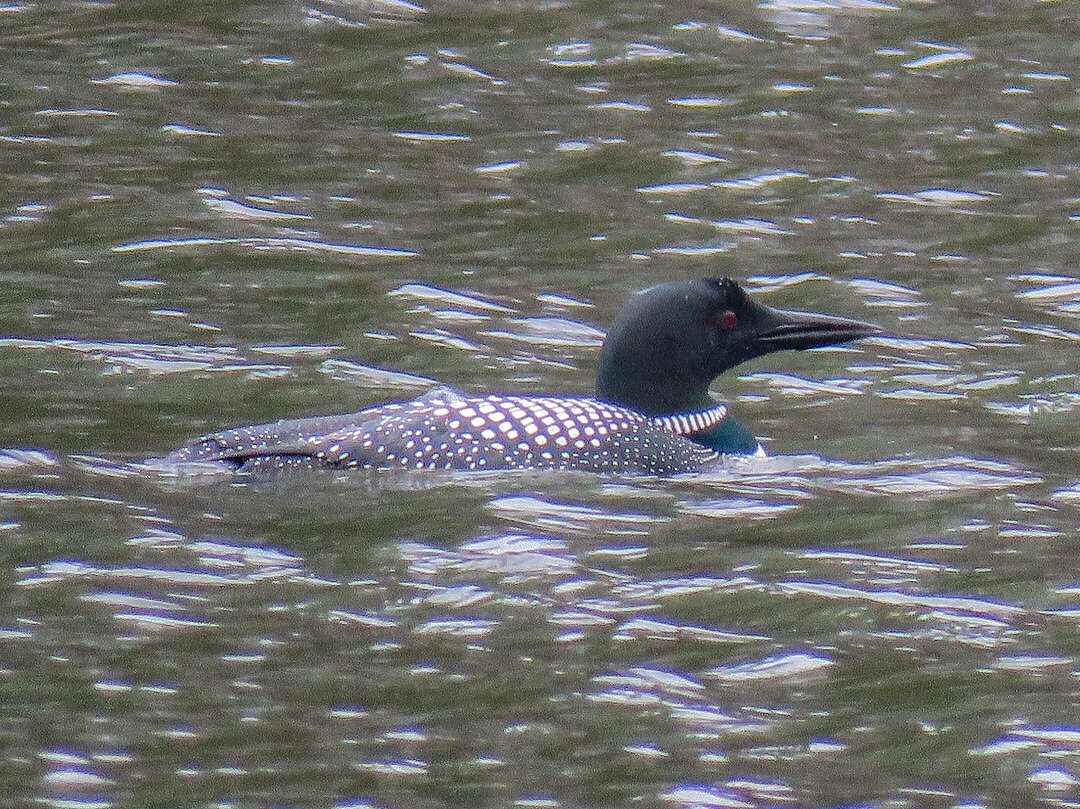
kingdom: Animalia
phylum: Chordata
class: Aves
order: Gaviiformes
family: Gaviidae
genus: Gavia
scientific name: Gavia immer
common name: Common loon
